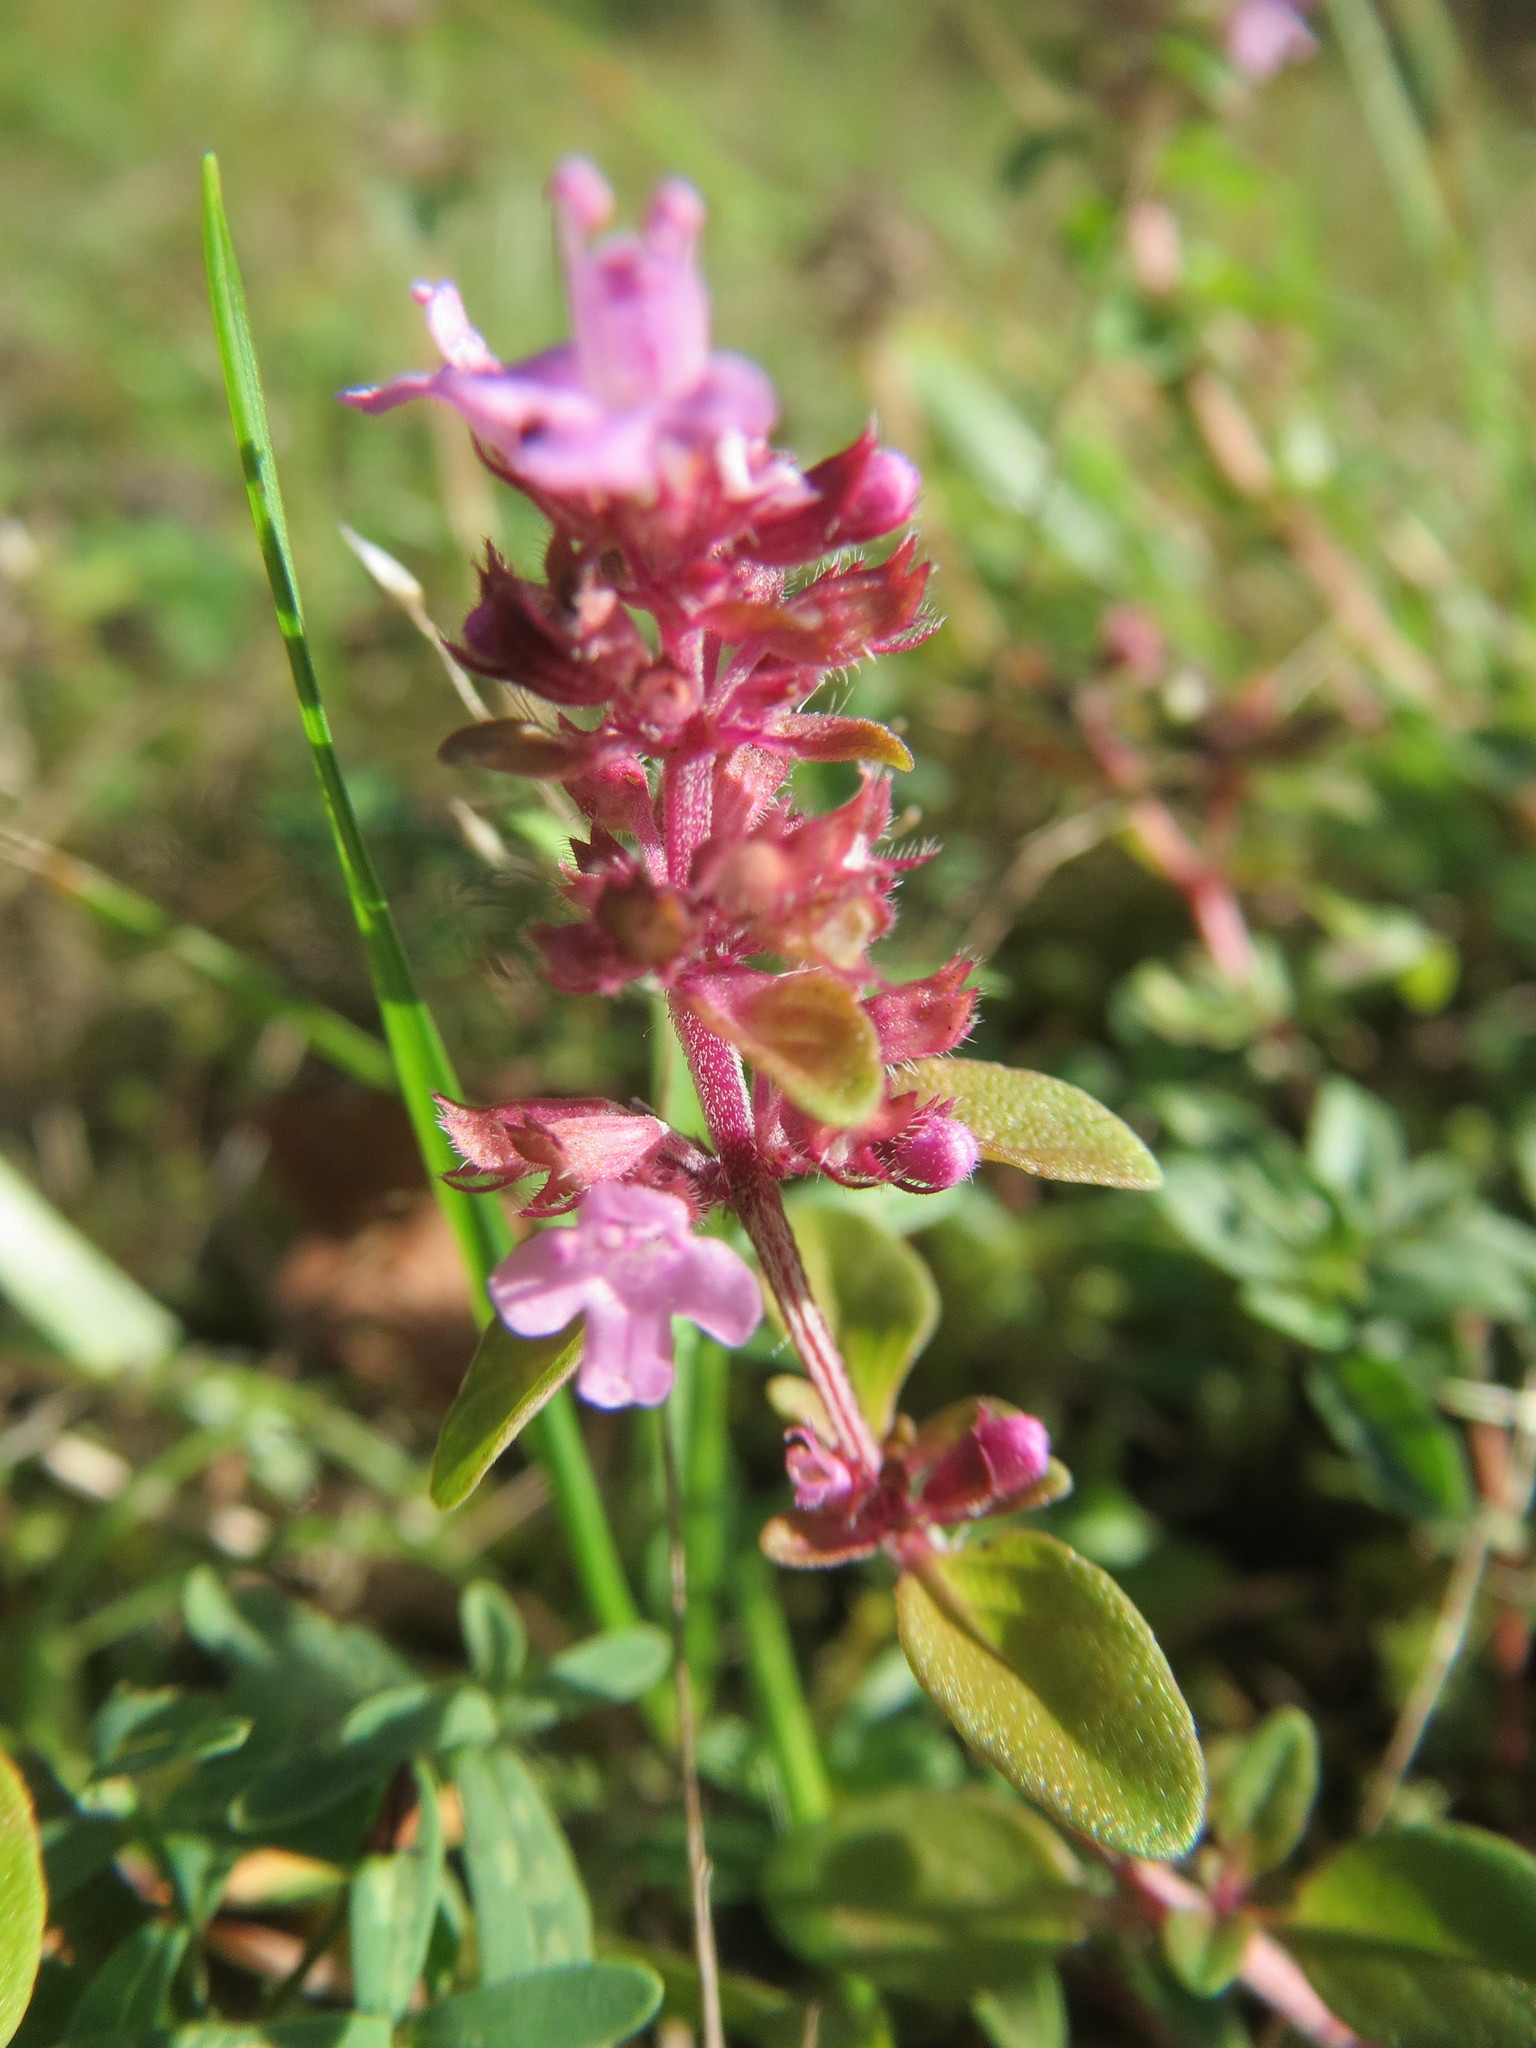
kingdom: Plantae
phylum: Tracheophyta
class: Magnoliopsida
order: Lamiales
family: Lamiaceae
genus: Thymus
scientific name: Thymus pulegioides
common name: Large thyme
